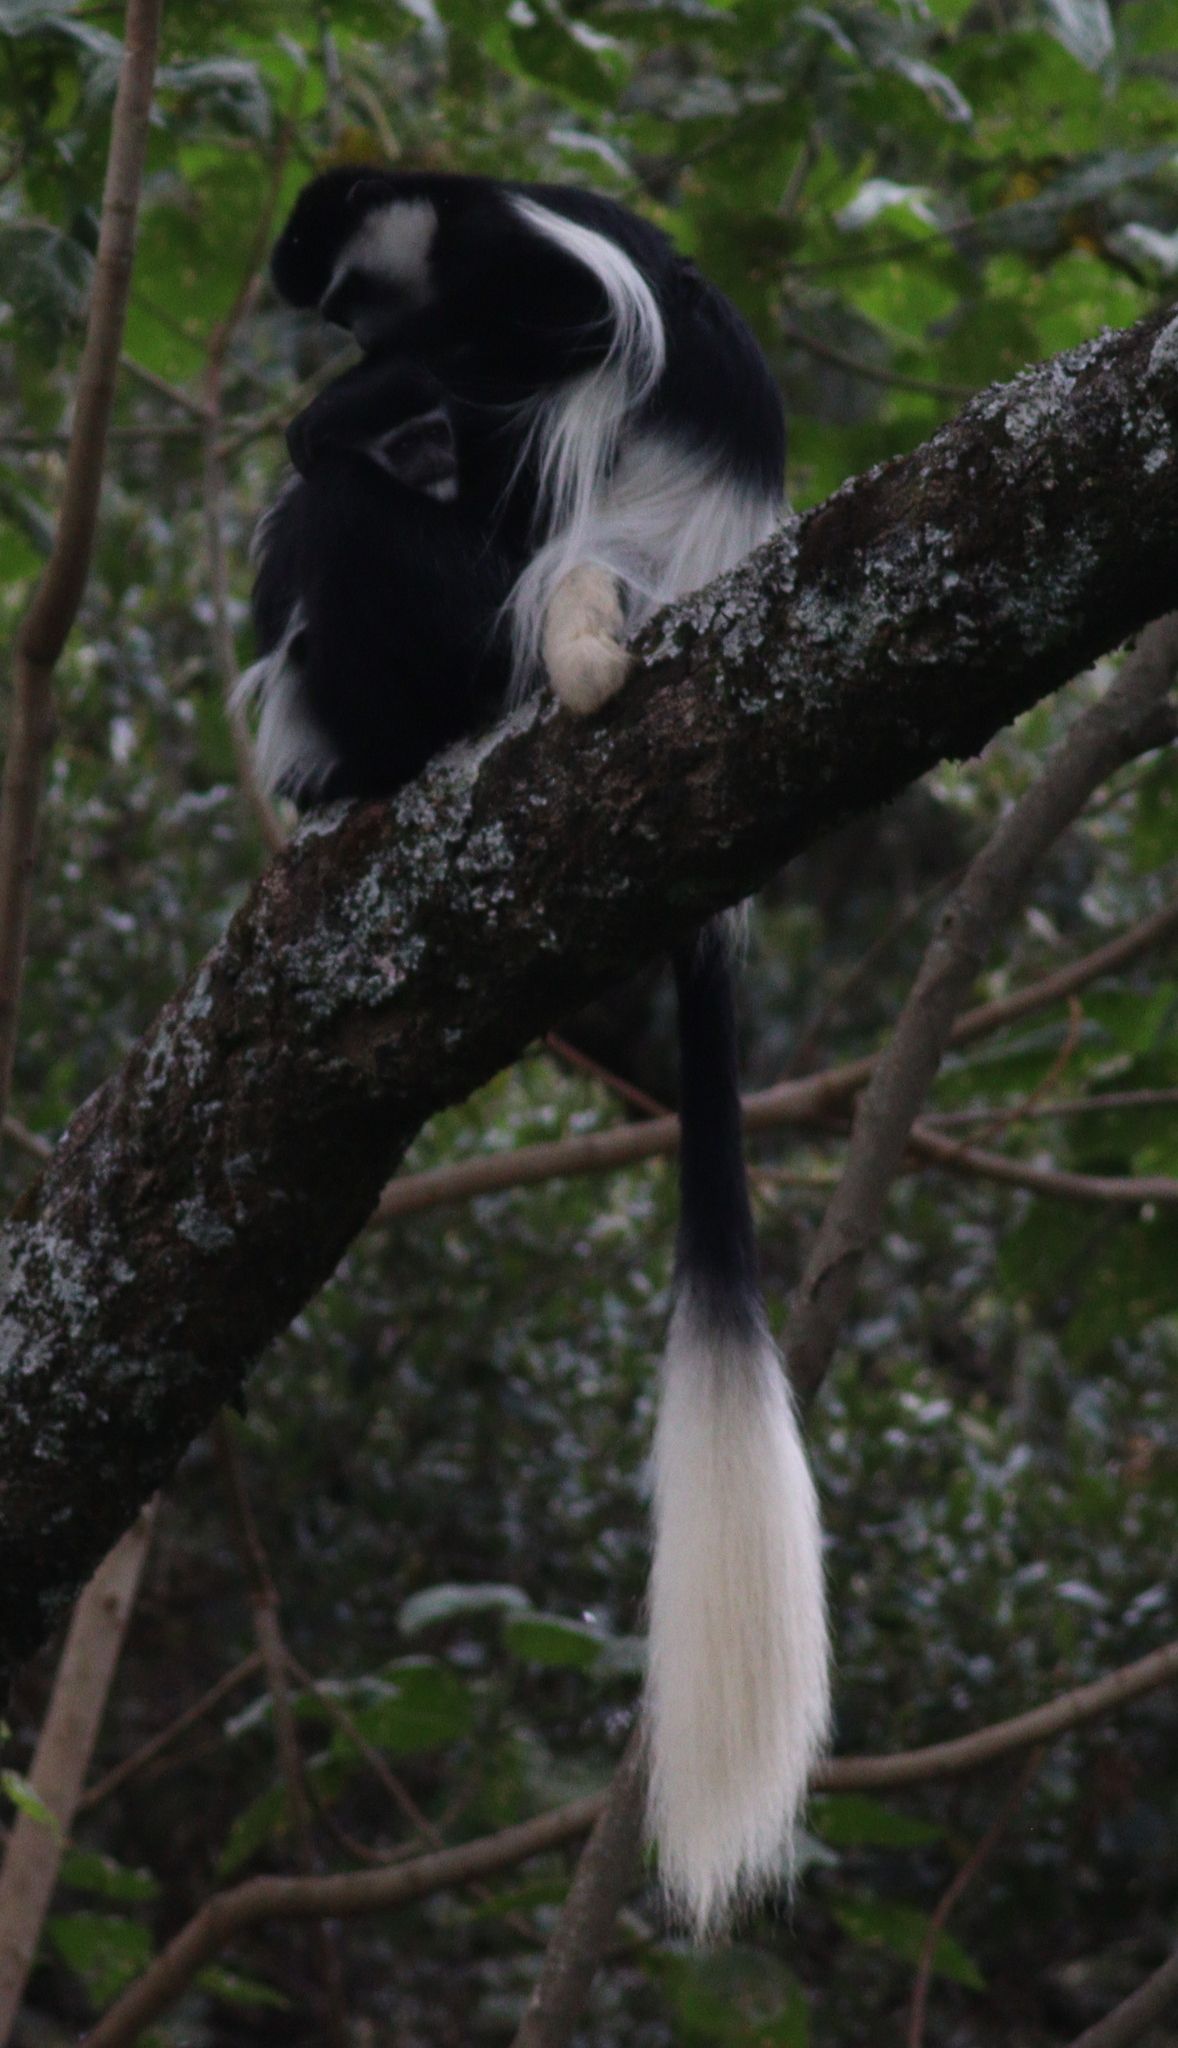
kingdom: Animalia
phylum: Chordata
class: Mammalia
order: Primates
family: Cercopithecidae
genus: Colobus
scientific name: Colobus guereza
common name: Mantled guereza
